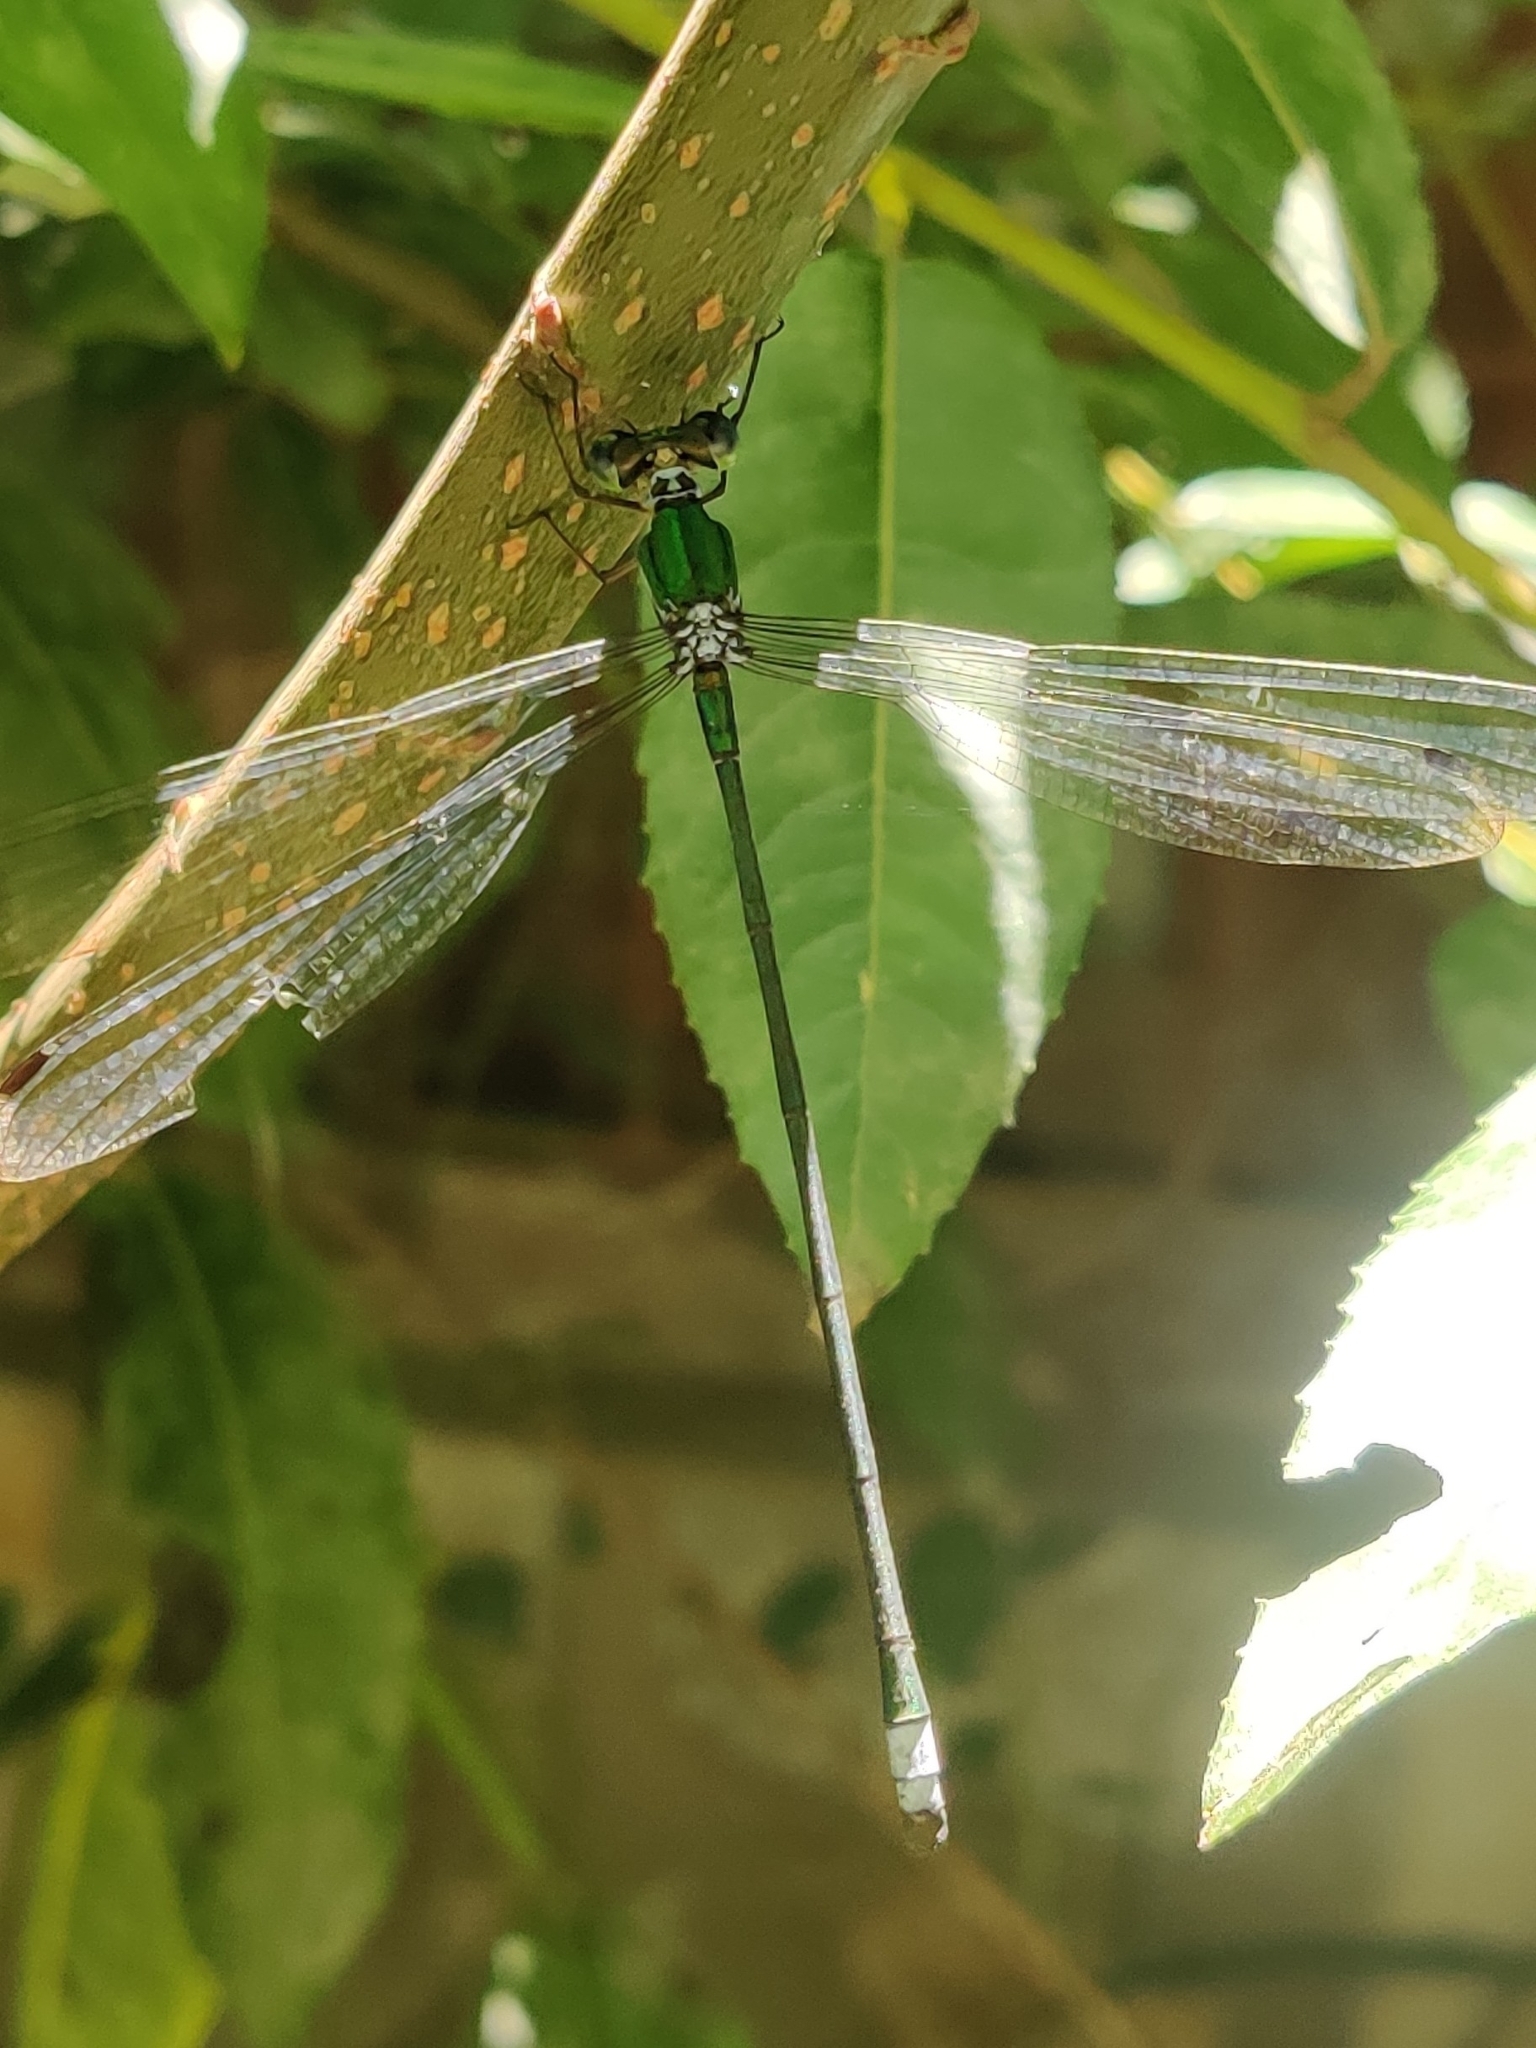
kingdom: Animalia
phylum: Arthropoda
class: Insecta
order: Odonata
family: Synlestidae
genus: Megalestes
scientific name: Megalestes major
